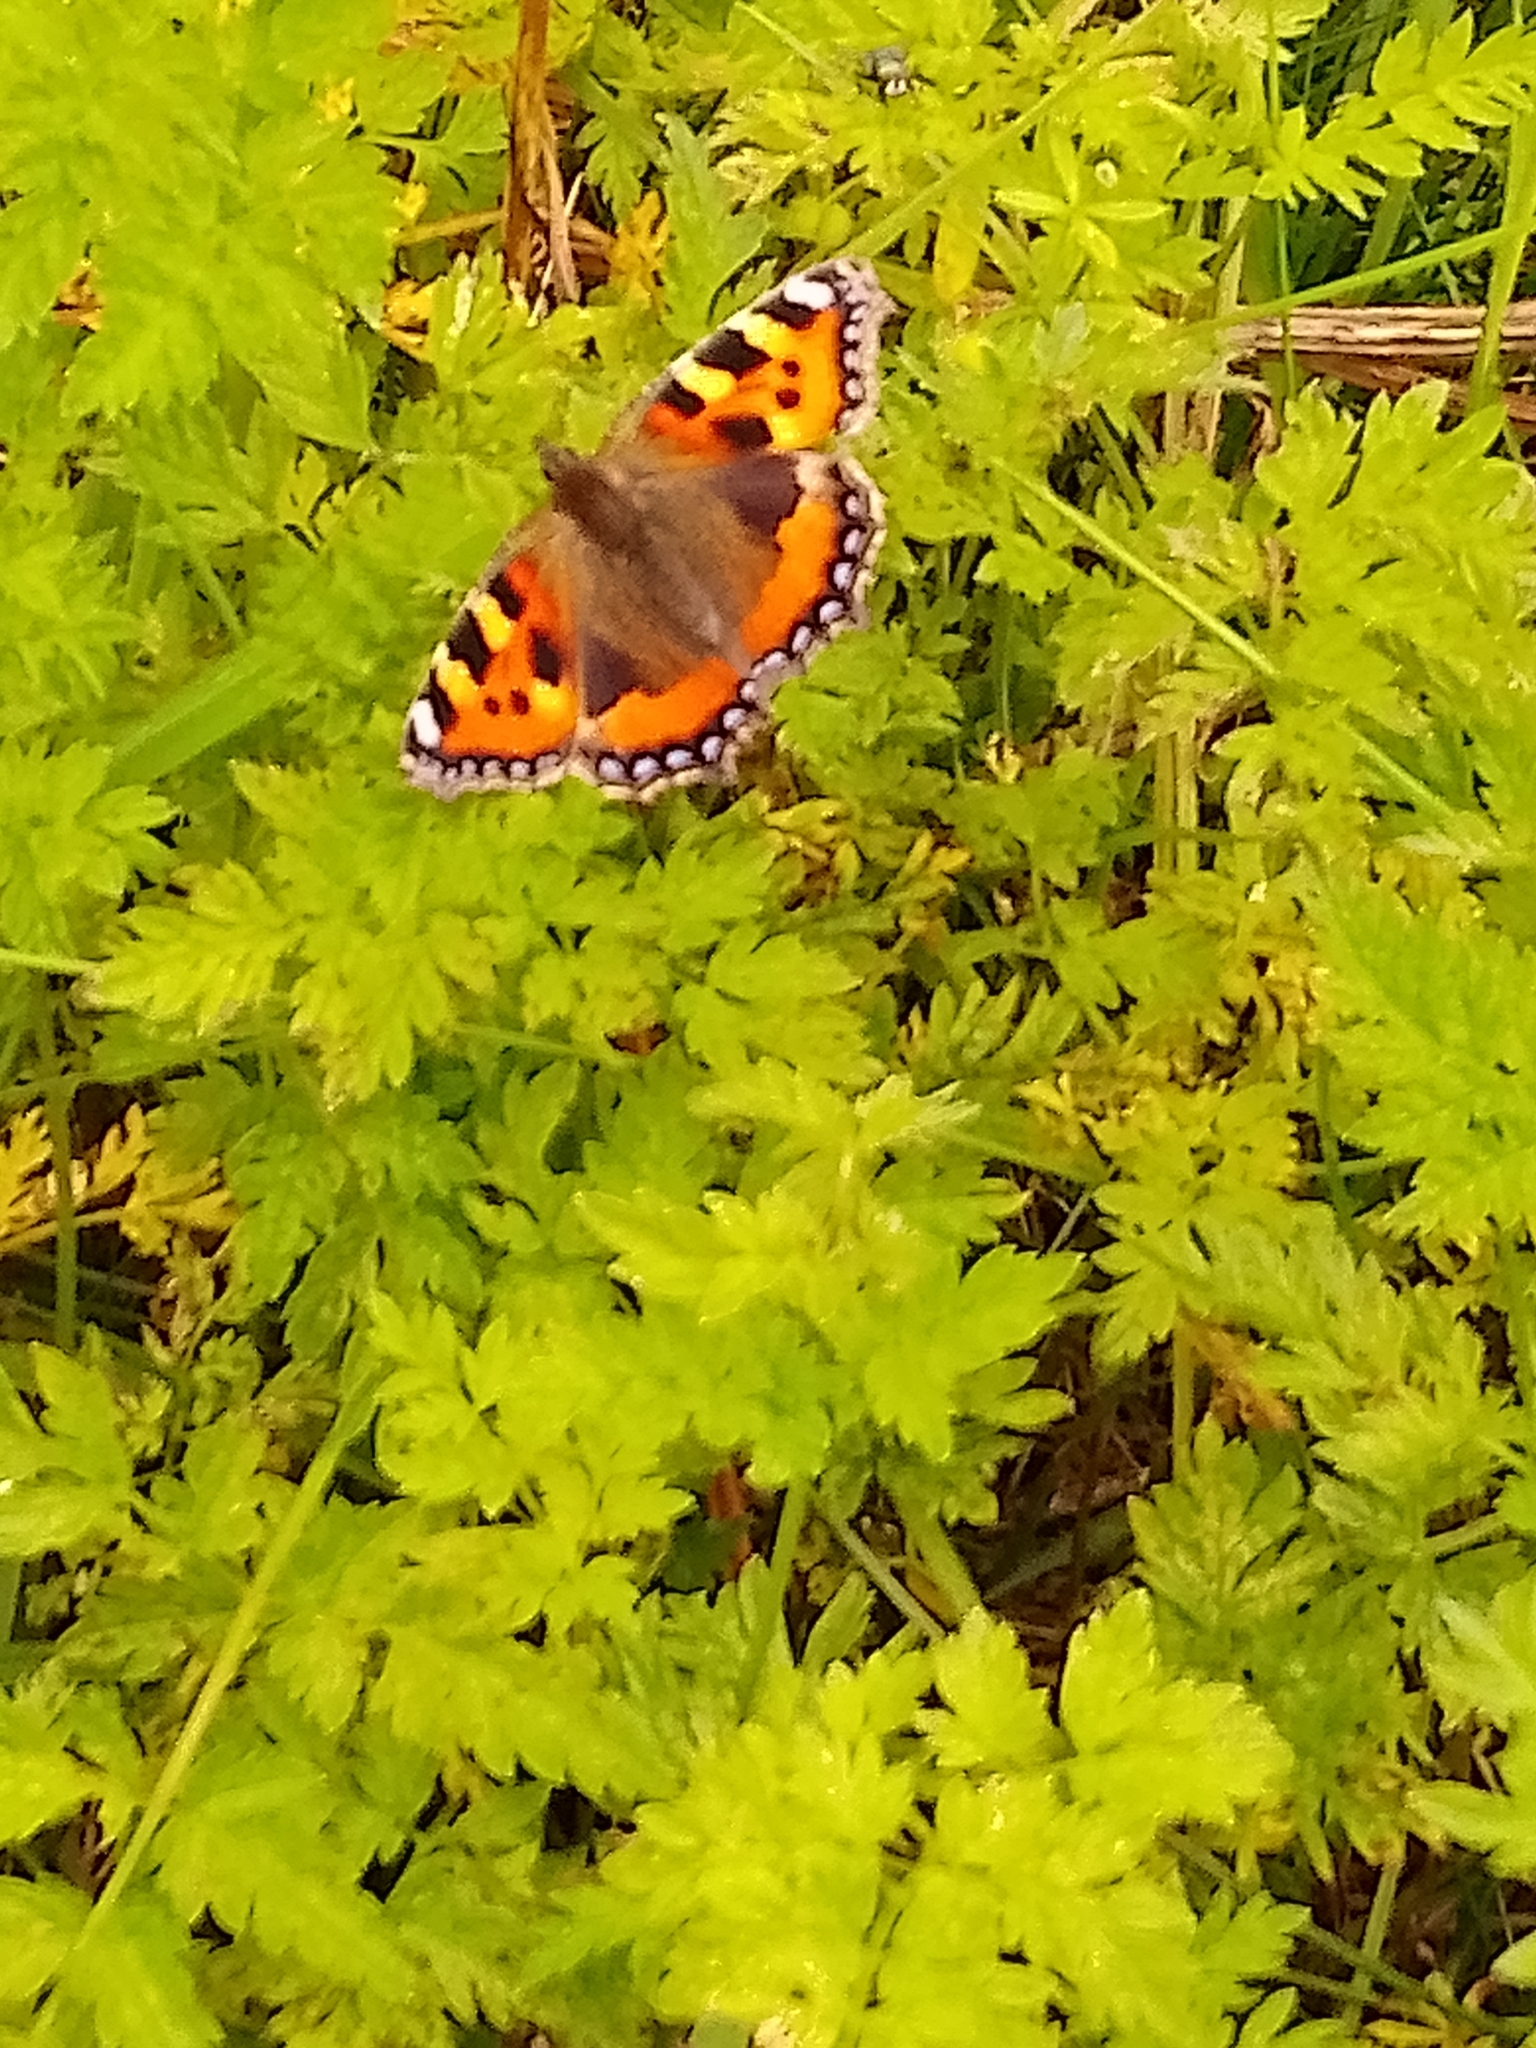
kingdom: Animalia
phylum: Arthropoda
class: Insecta
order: Lepidoptera
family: Nymphalidae
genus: Aglais
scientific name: Aglais urticae
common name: Small tortoiseshell
